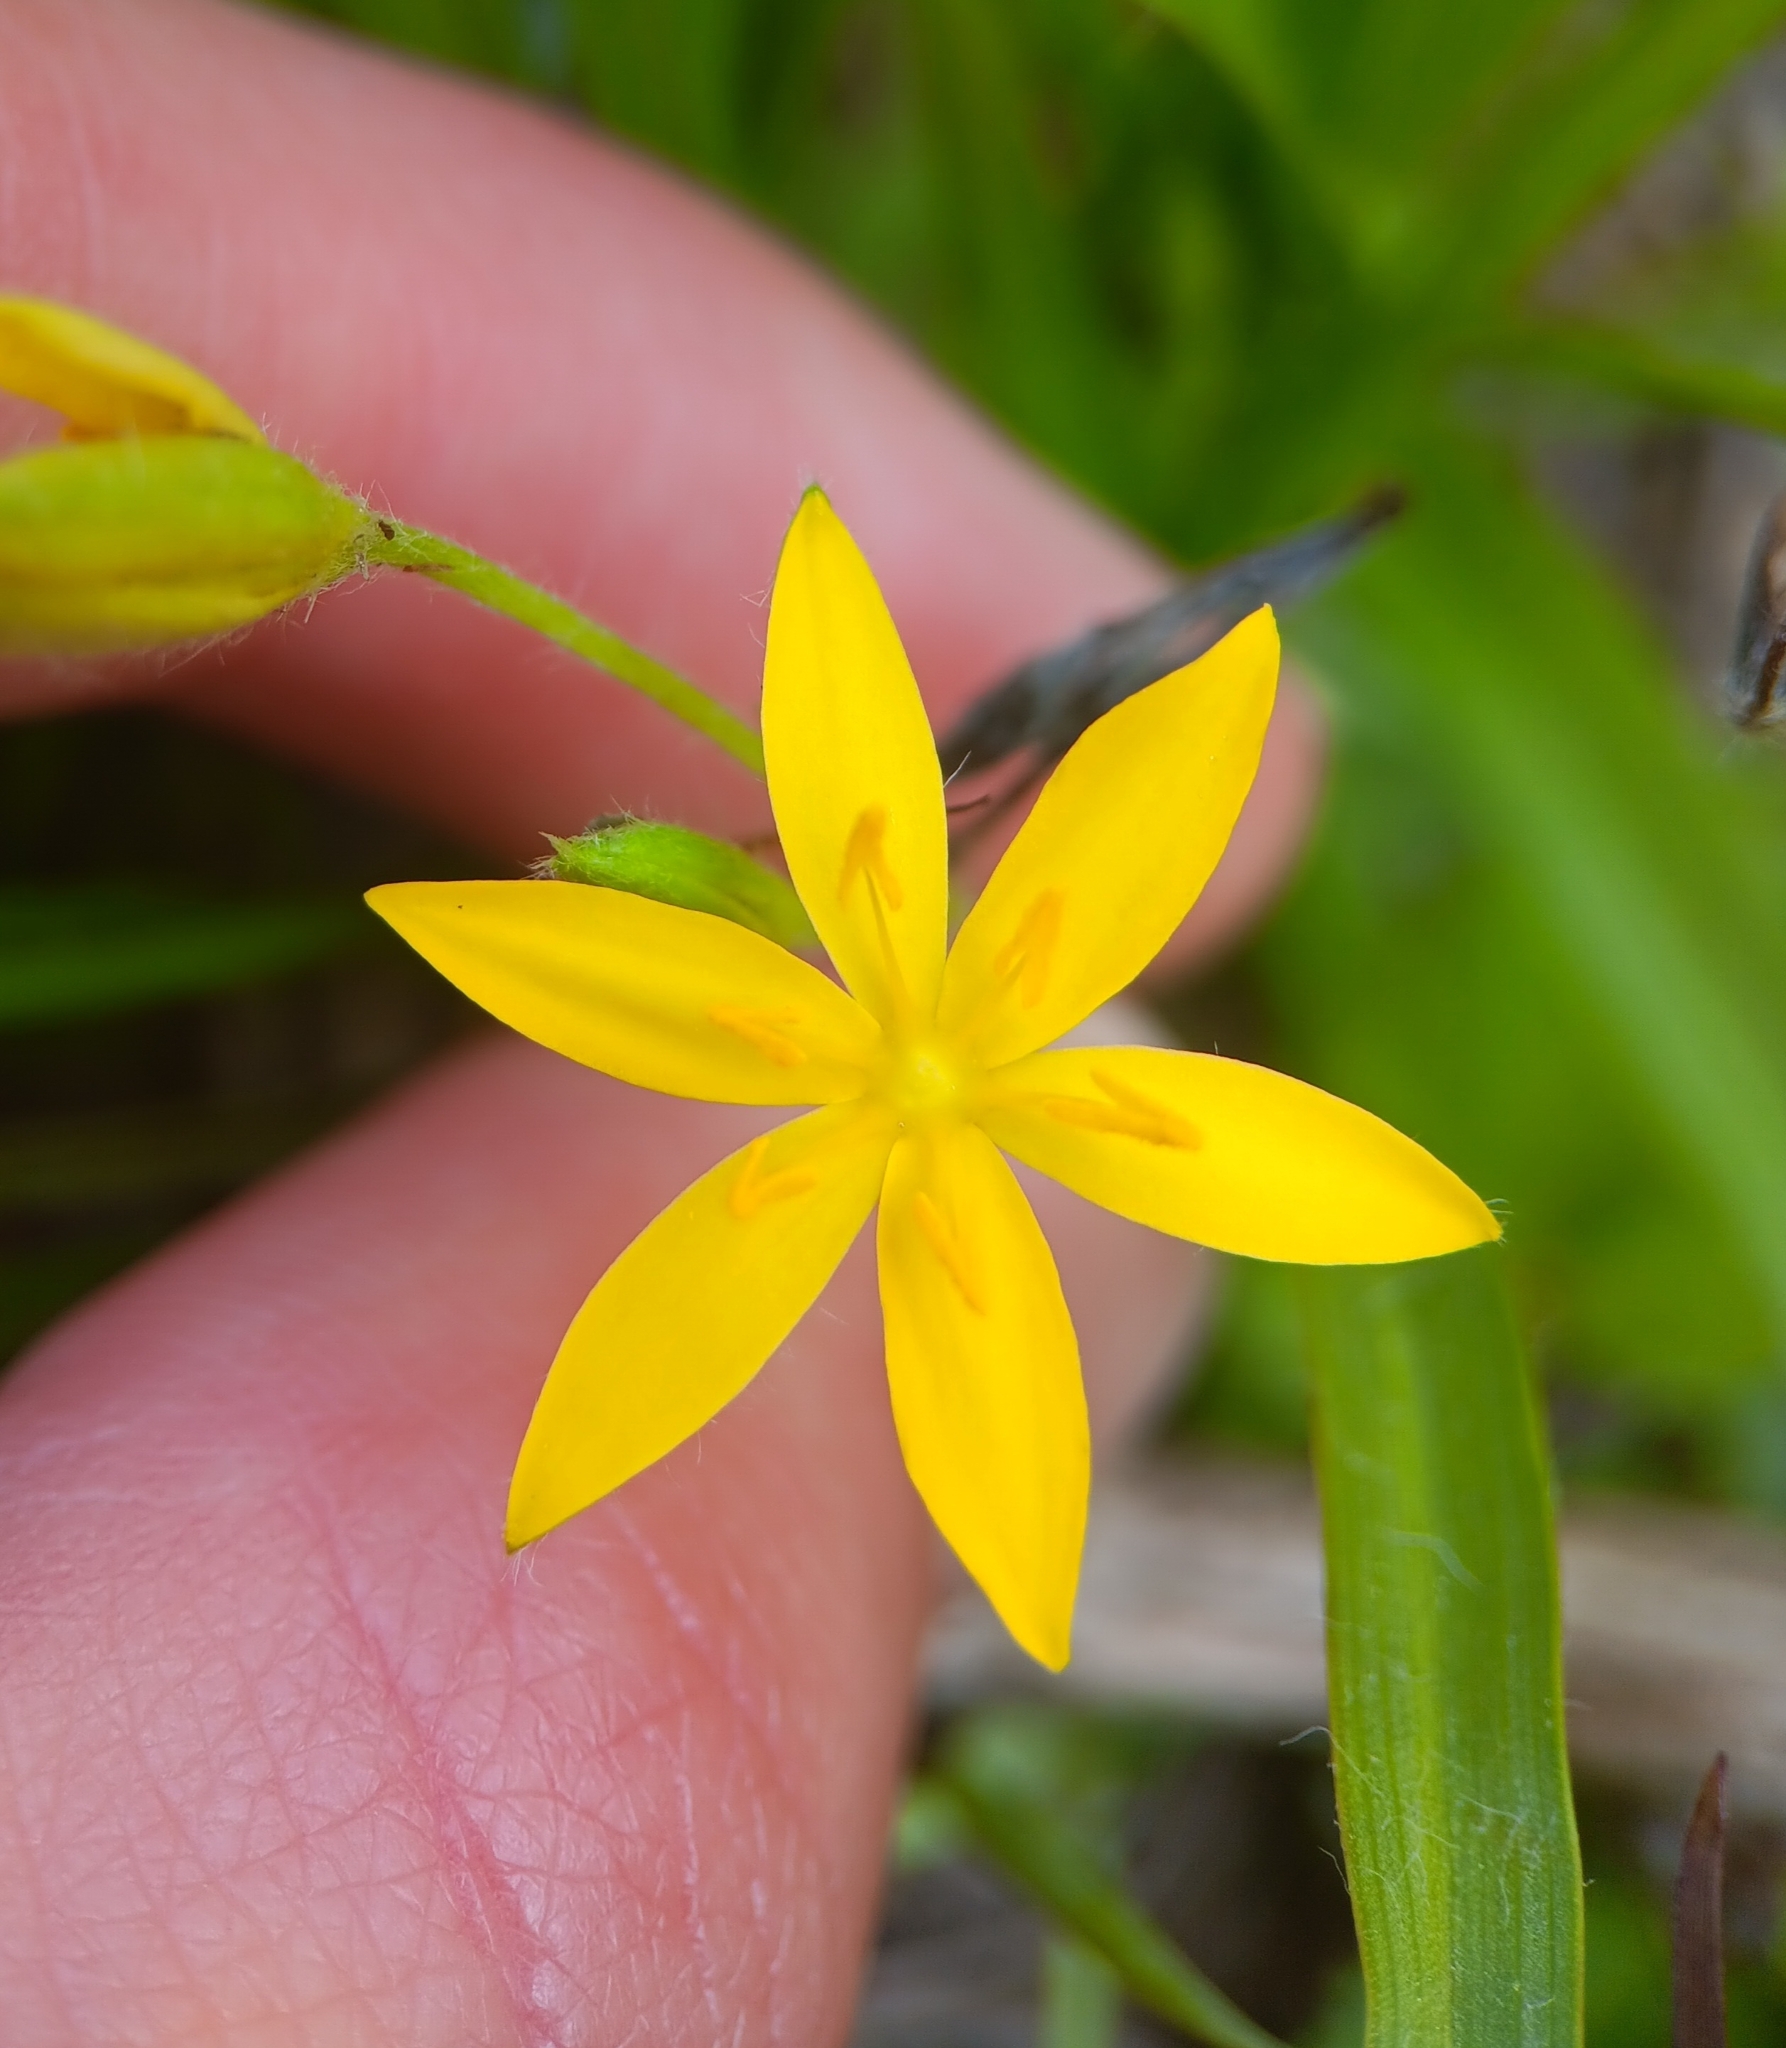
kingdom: Plantae
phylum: Tracheophyta
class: Liliopsida
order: Asparagales
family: Hypoxidaceae
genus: Hypoxis
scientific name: Hypoxis hirsuta
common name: Common goldstar
